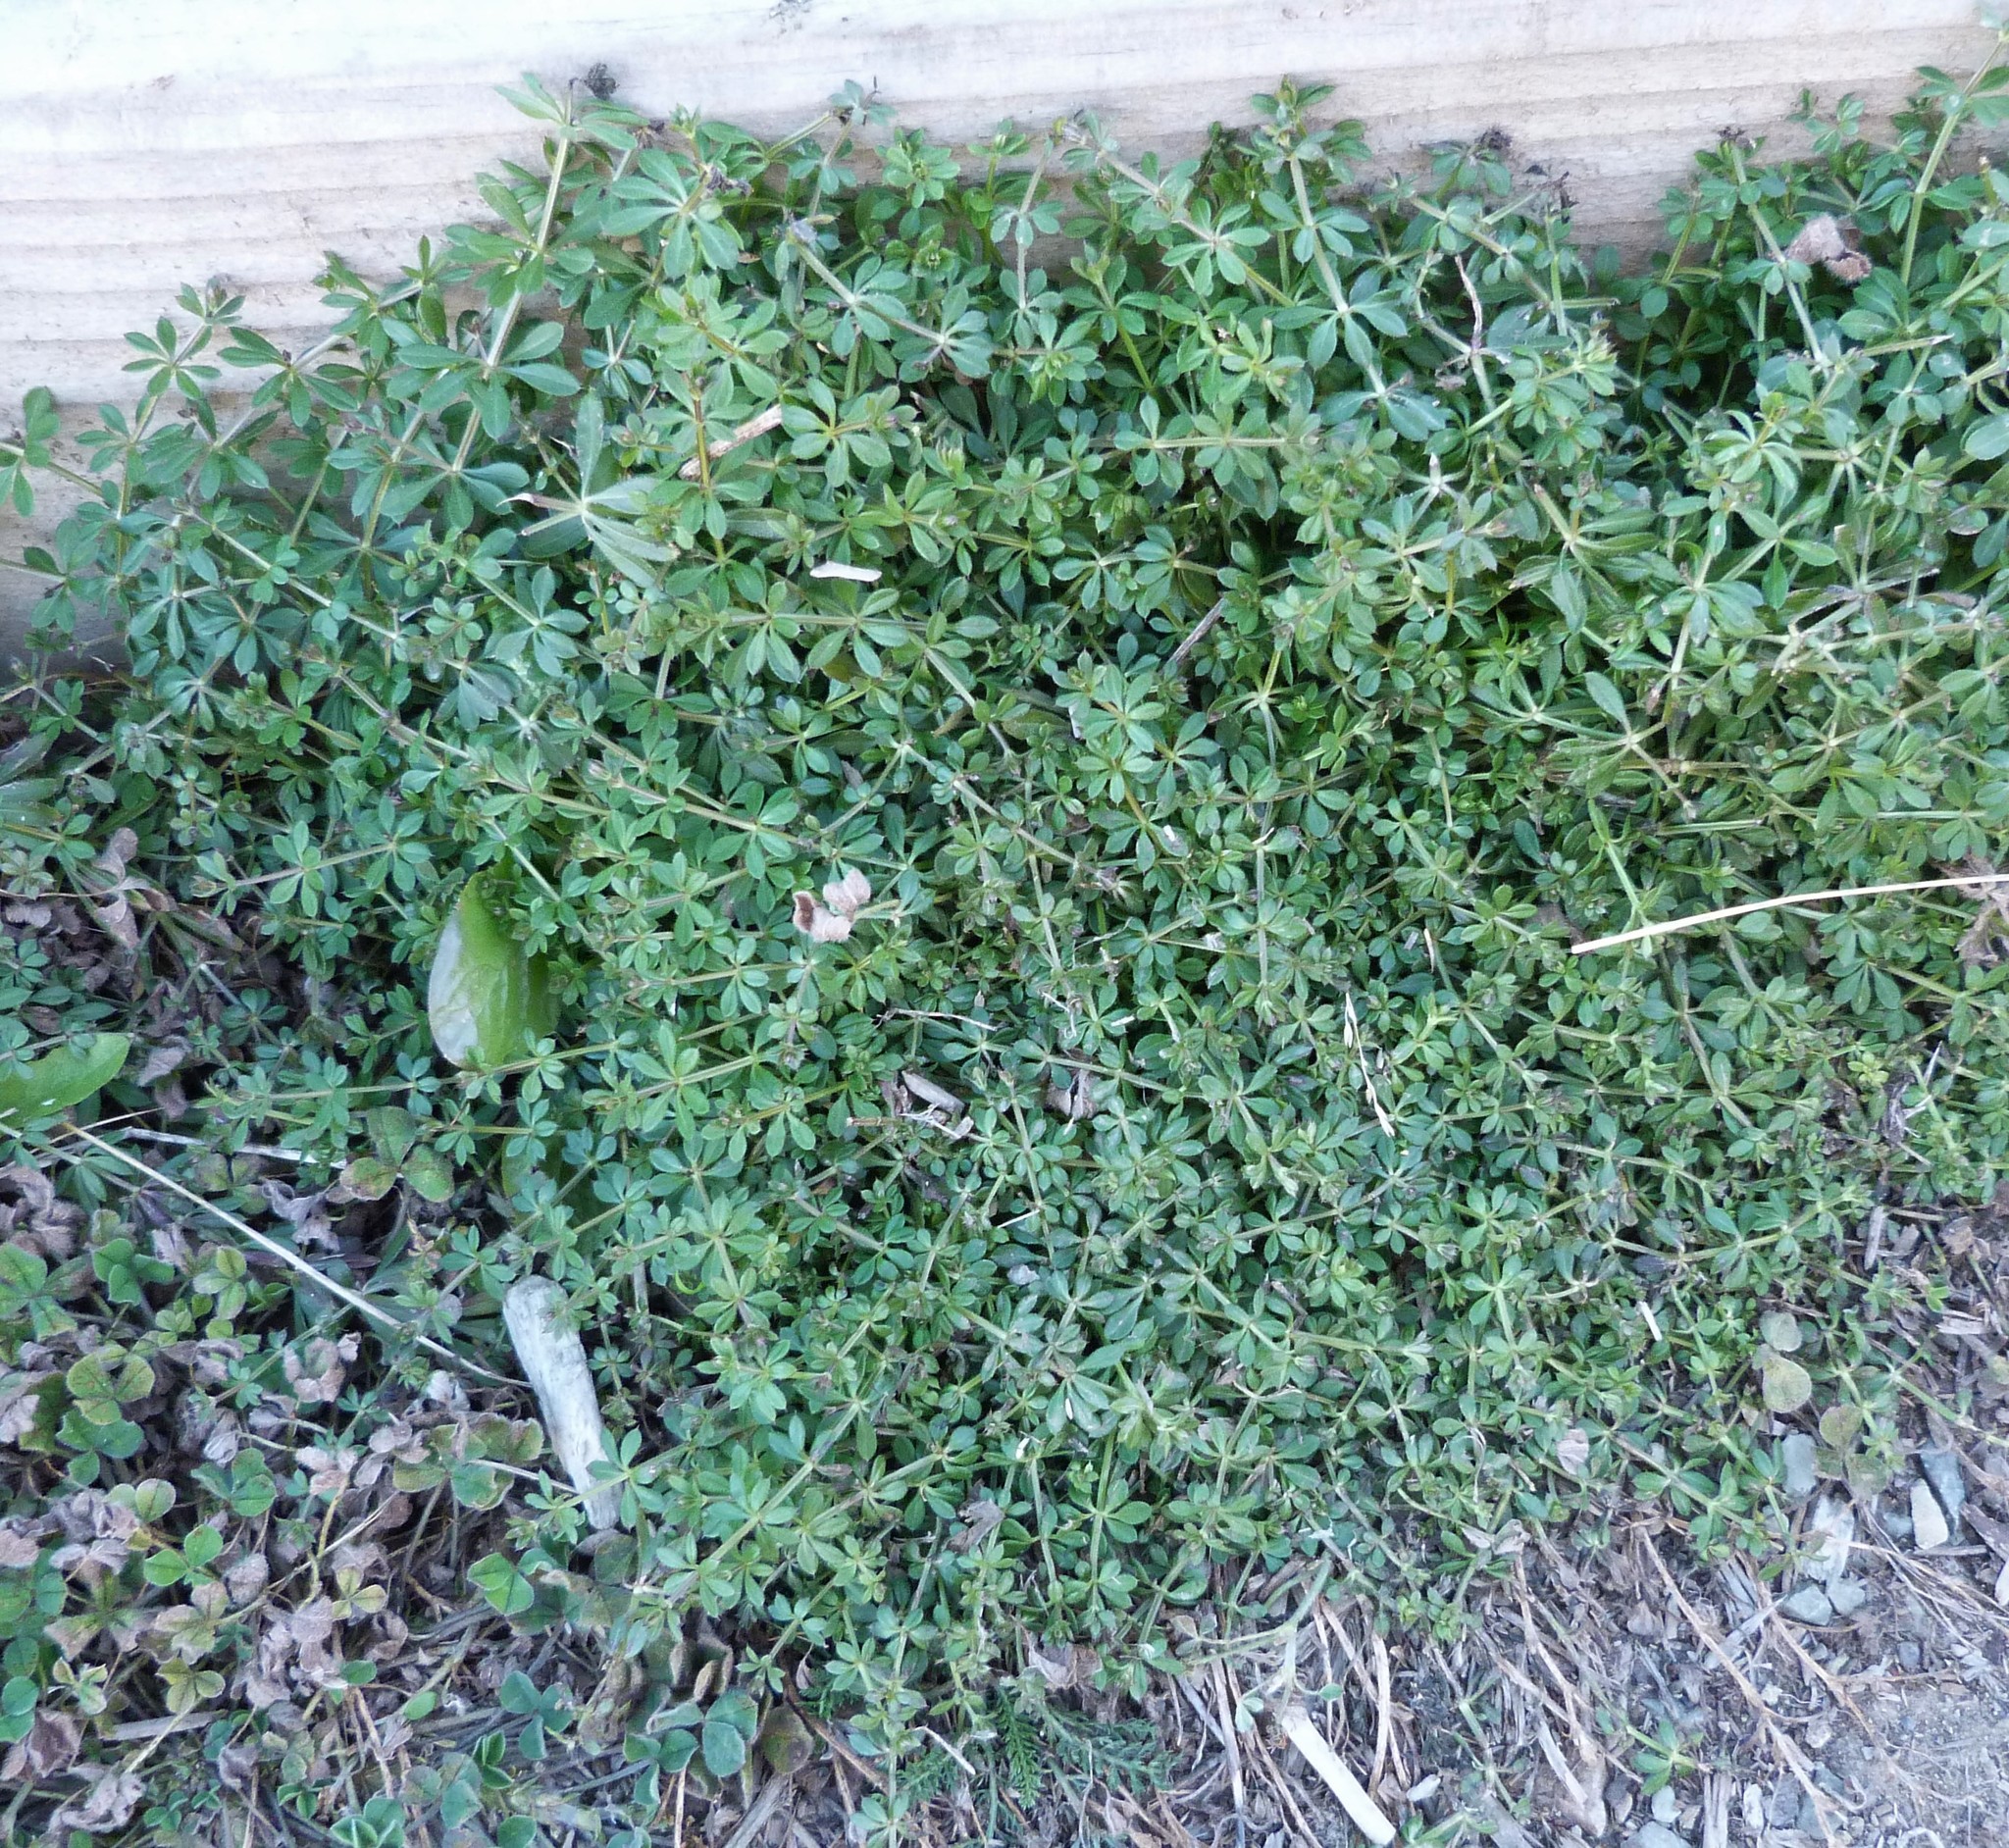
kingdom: Plantae
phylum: Tracheophyta
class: Magnoliopsida
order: Gentianales
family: Rubiaceae
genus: Galium
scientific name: Galium aparine
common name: Cleavers
